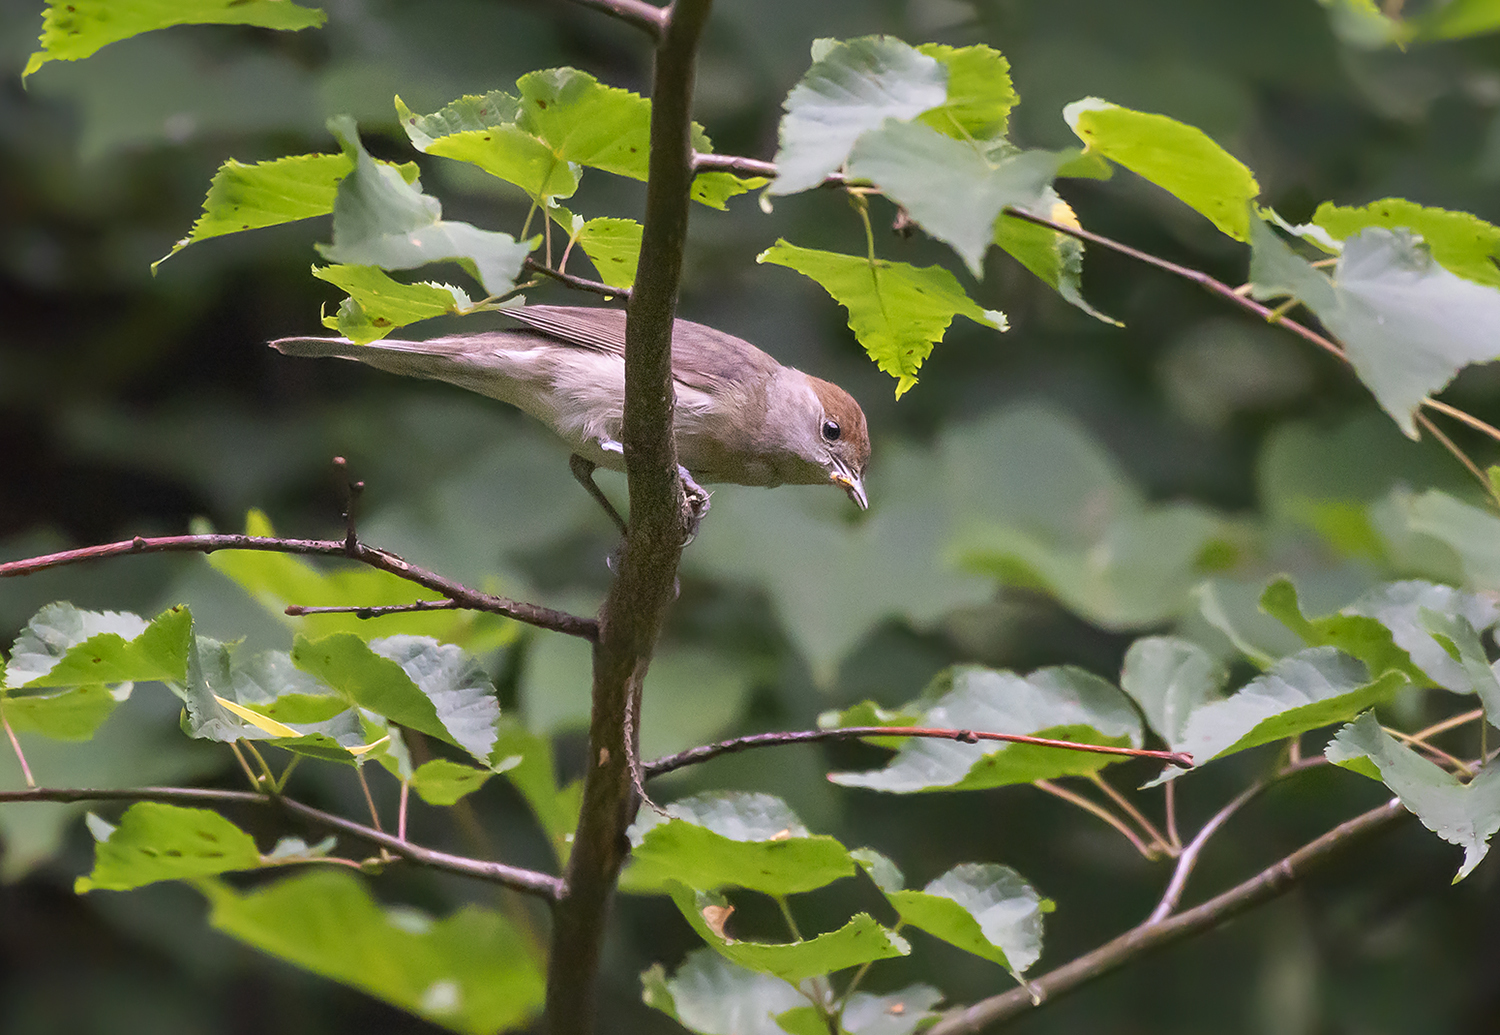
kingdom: Animalia
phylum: Chordata
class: Aves
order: Passeriformes
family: Sylviidae
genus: Sylvia
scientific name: Sylvia atricapilla
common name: Eurasian blackcap
